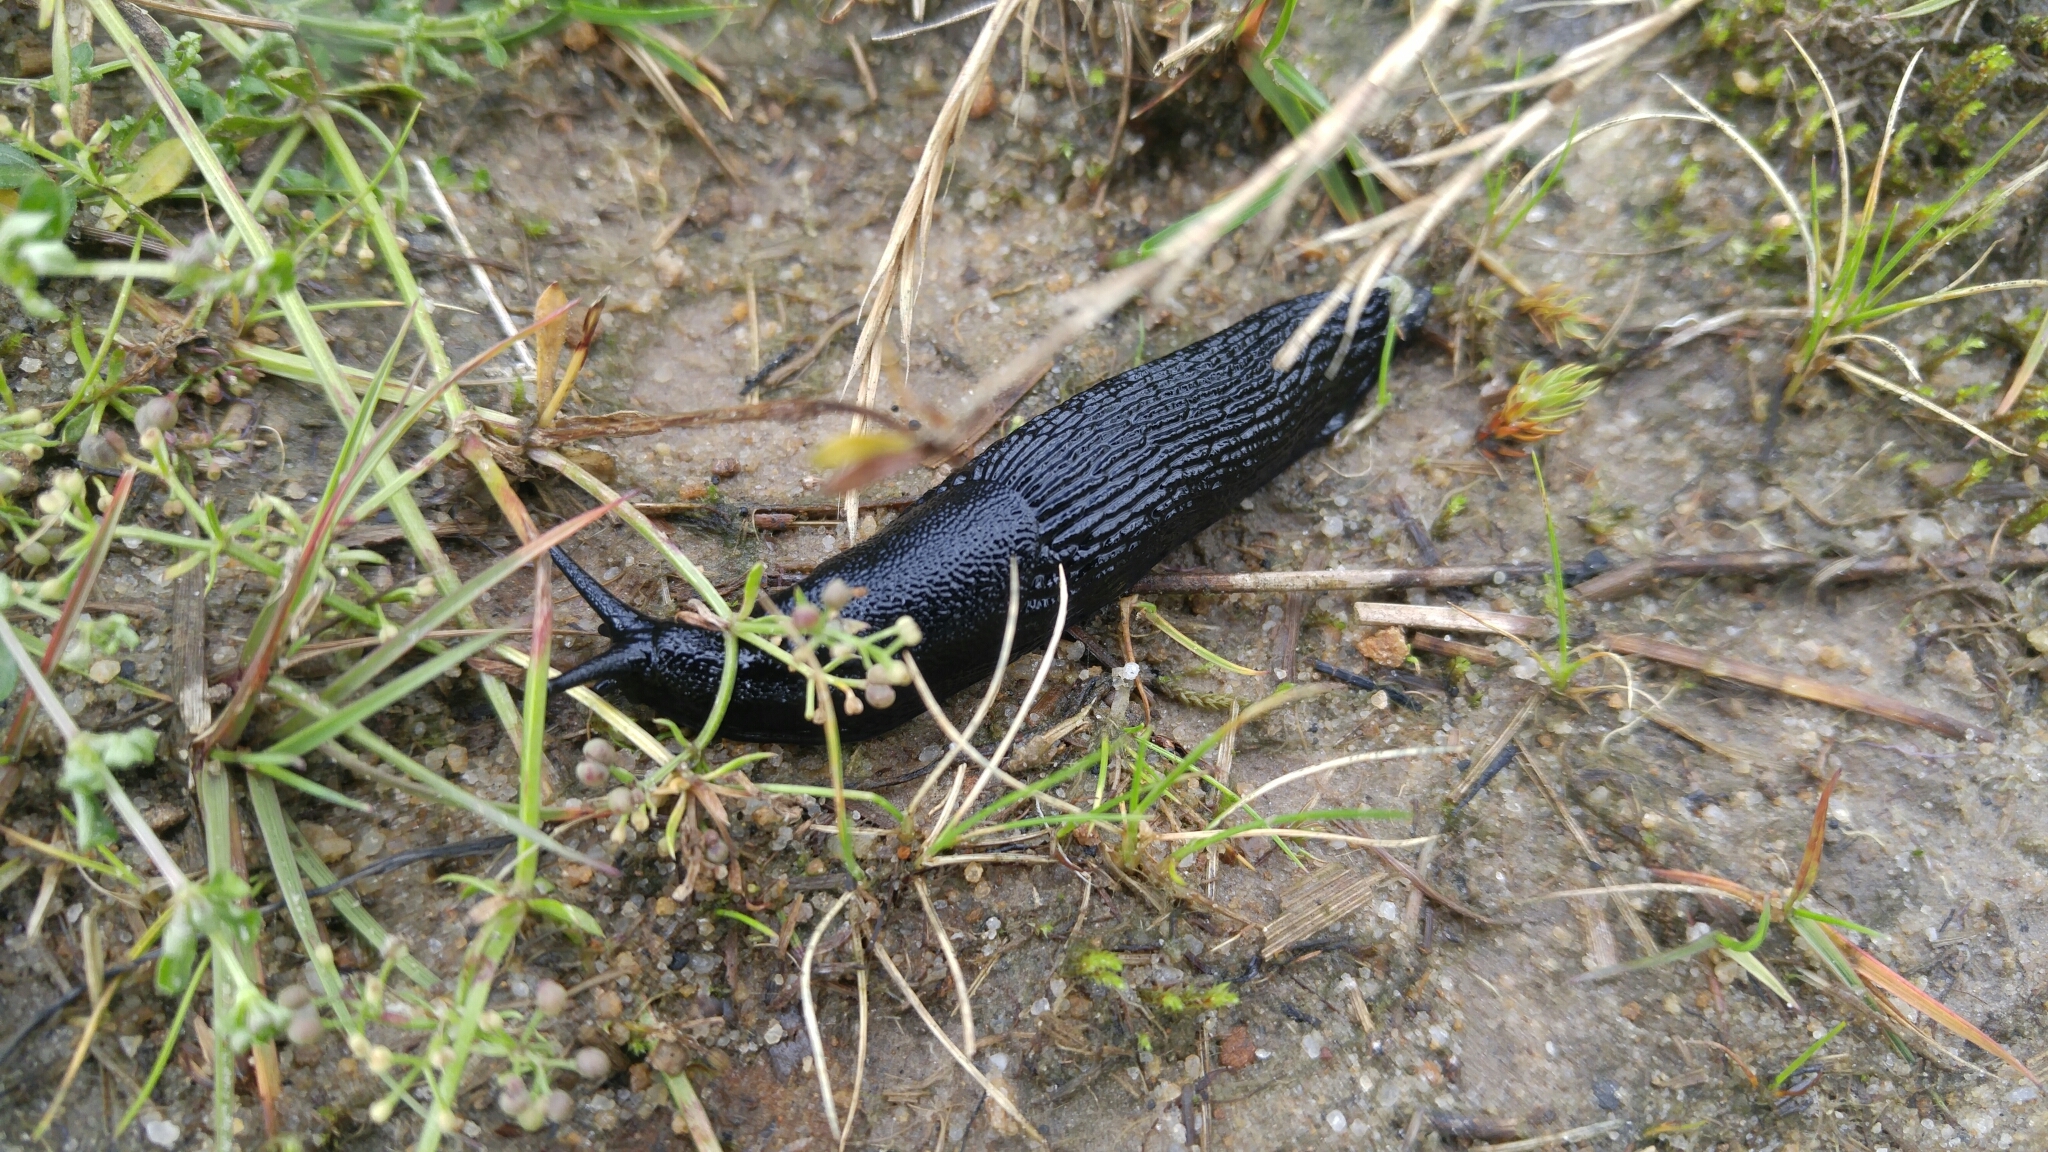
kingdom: Animalia
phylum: Mollusca
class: Gastropoda
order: Stylommatophora
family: Arionidae
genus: Arion
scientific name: Arion ater
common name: Black arion
